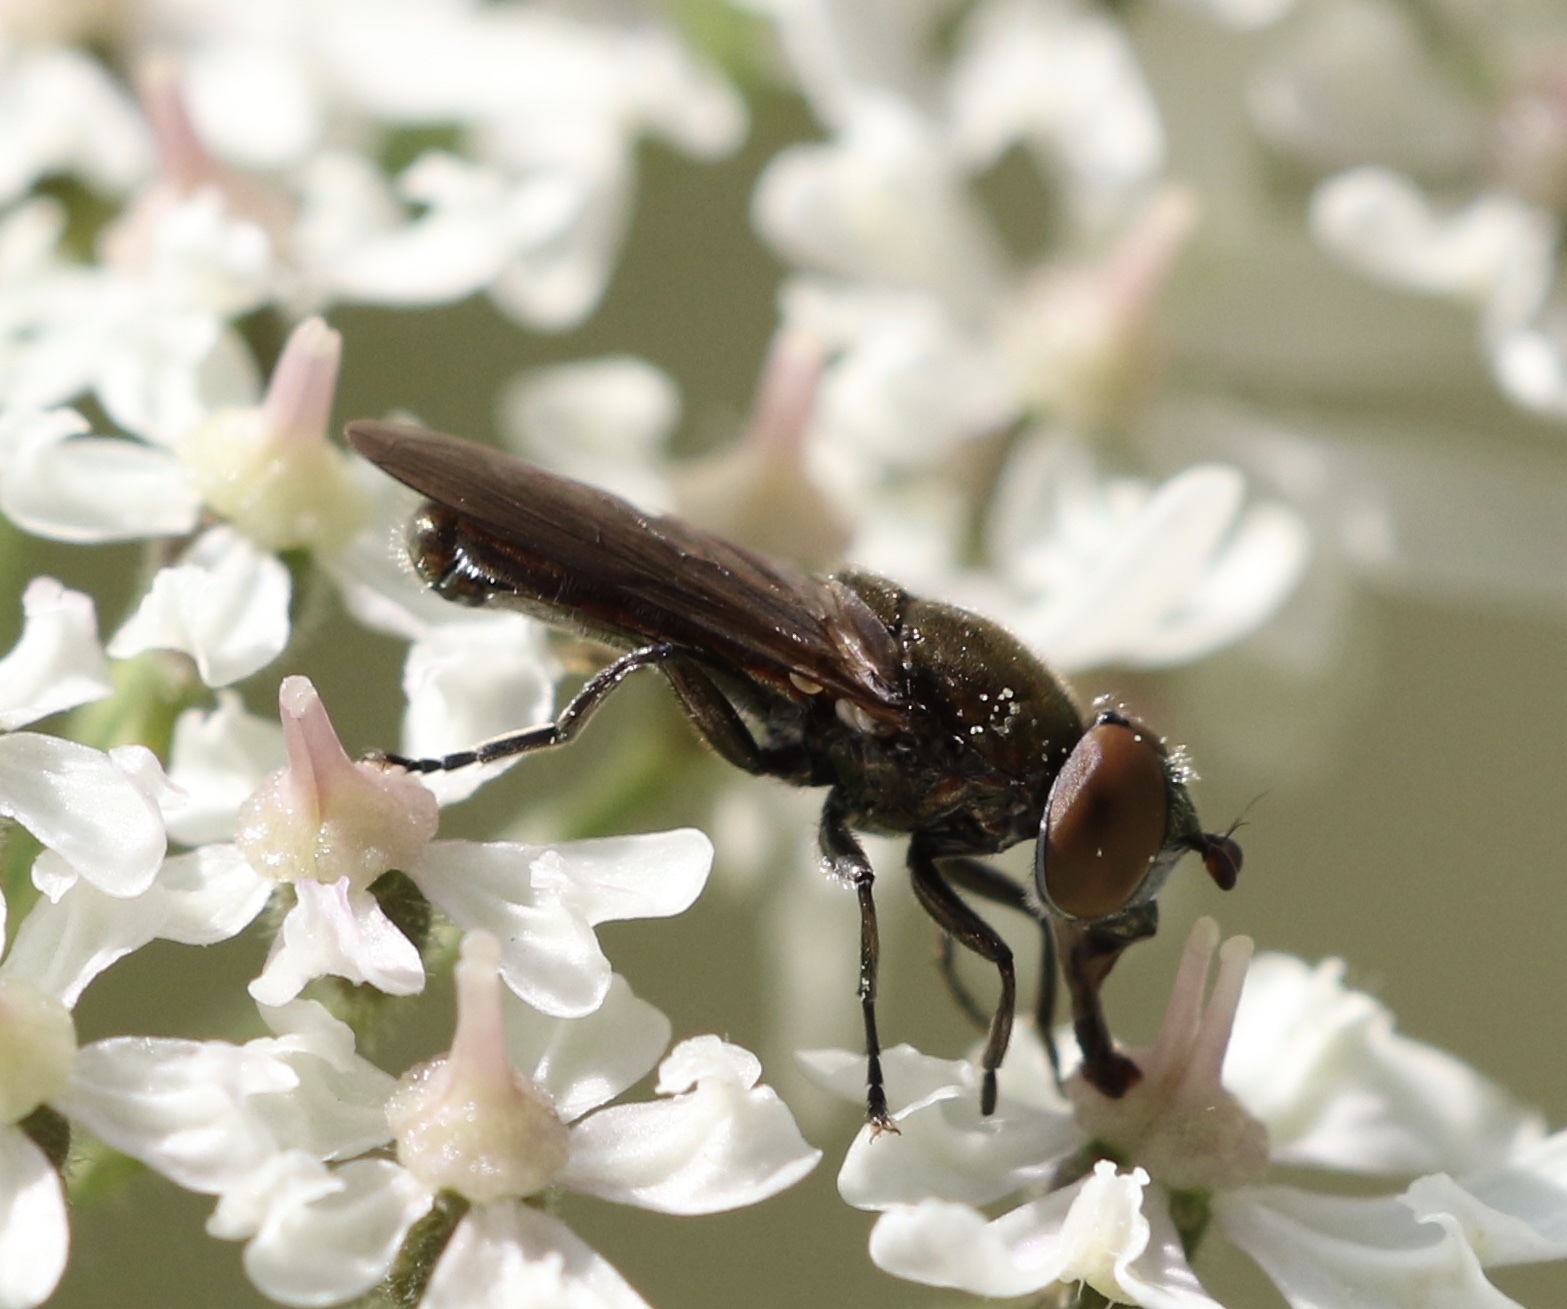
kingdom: Animalia
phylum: Arthropoda
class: Insecta
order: Diptera
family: Syrphidae
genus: Orthonevra
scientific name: Orthonevra splendens
